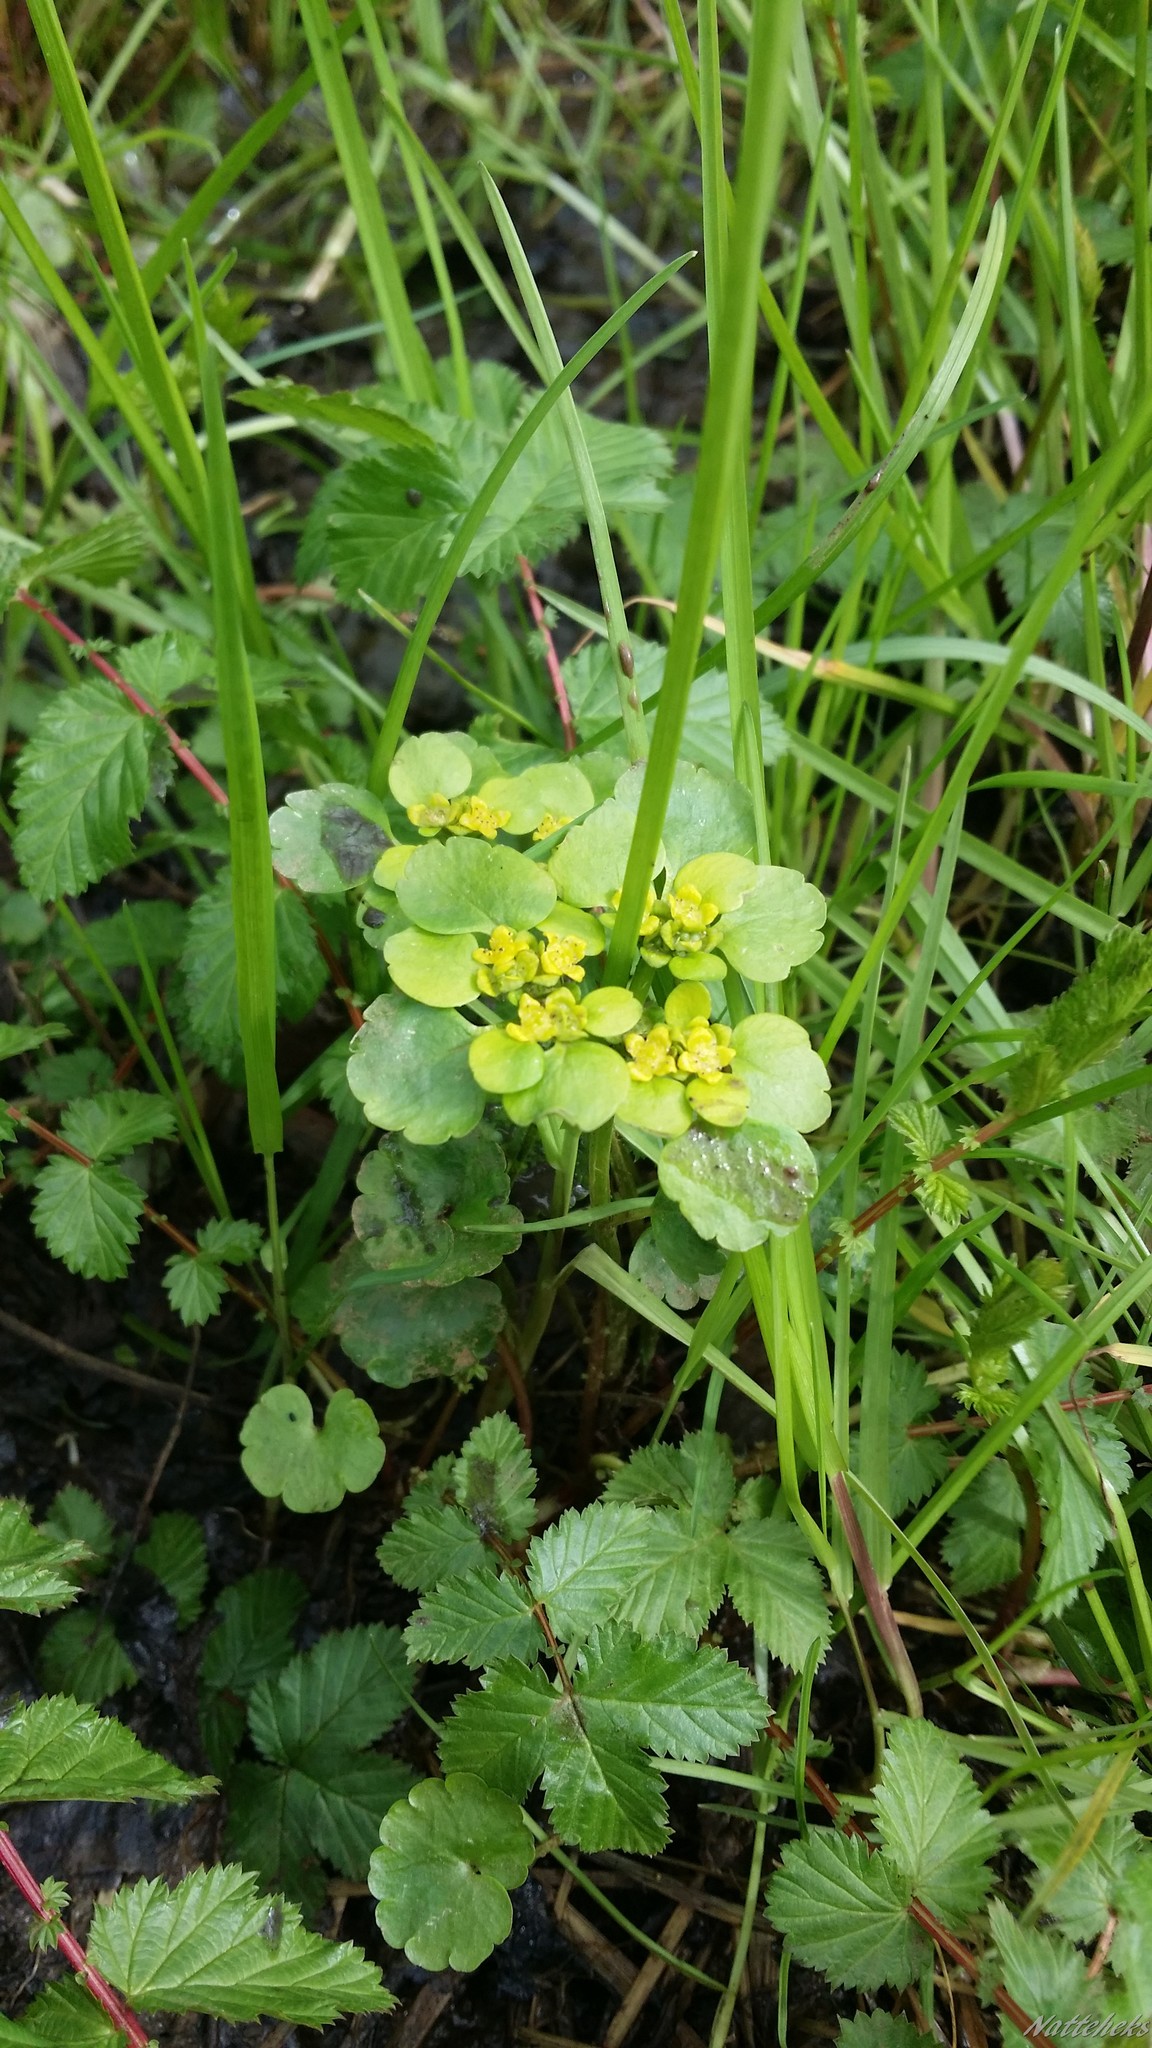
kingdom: Plantae
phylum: Tracheophyta
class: Magnoliopsida
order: Saxifragales
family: Saxifragaceae
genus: Chrysosplenium
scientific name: Chrysosplenium alternifolium
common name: Alternate-leaved golden-saxifrage
